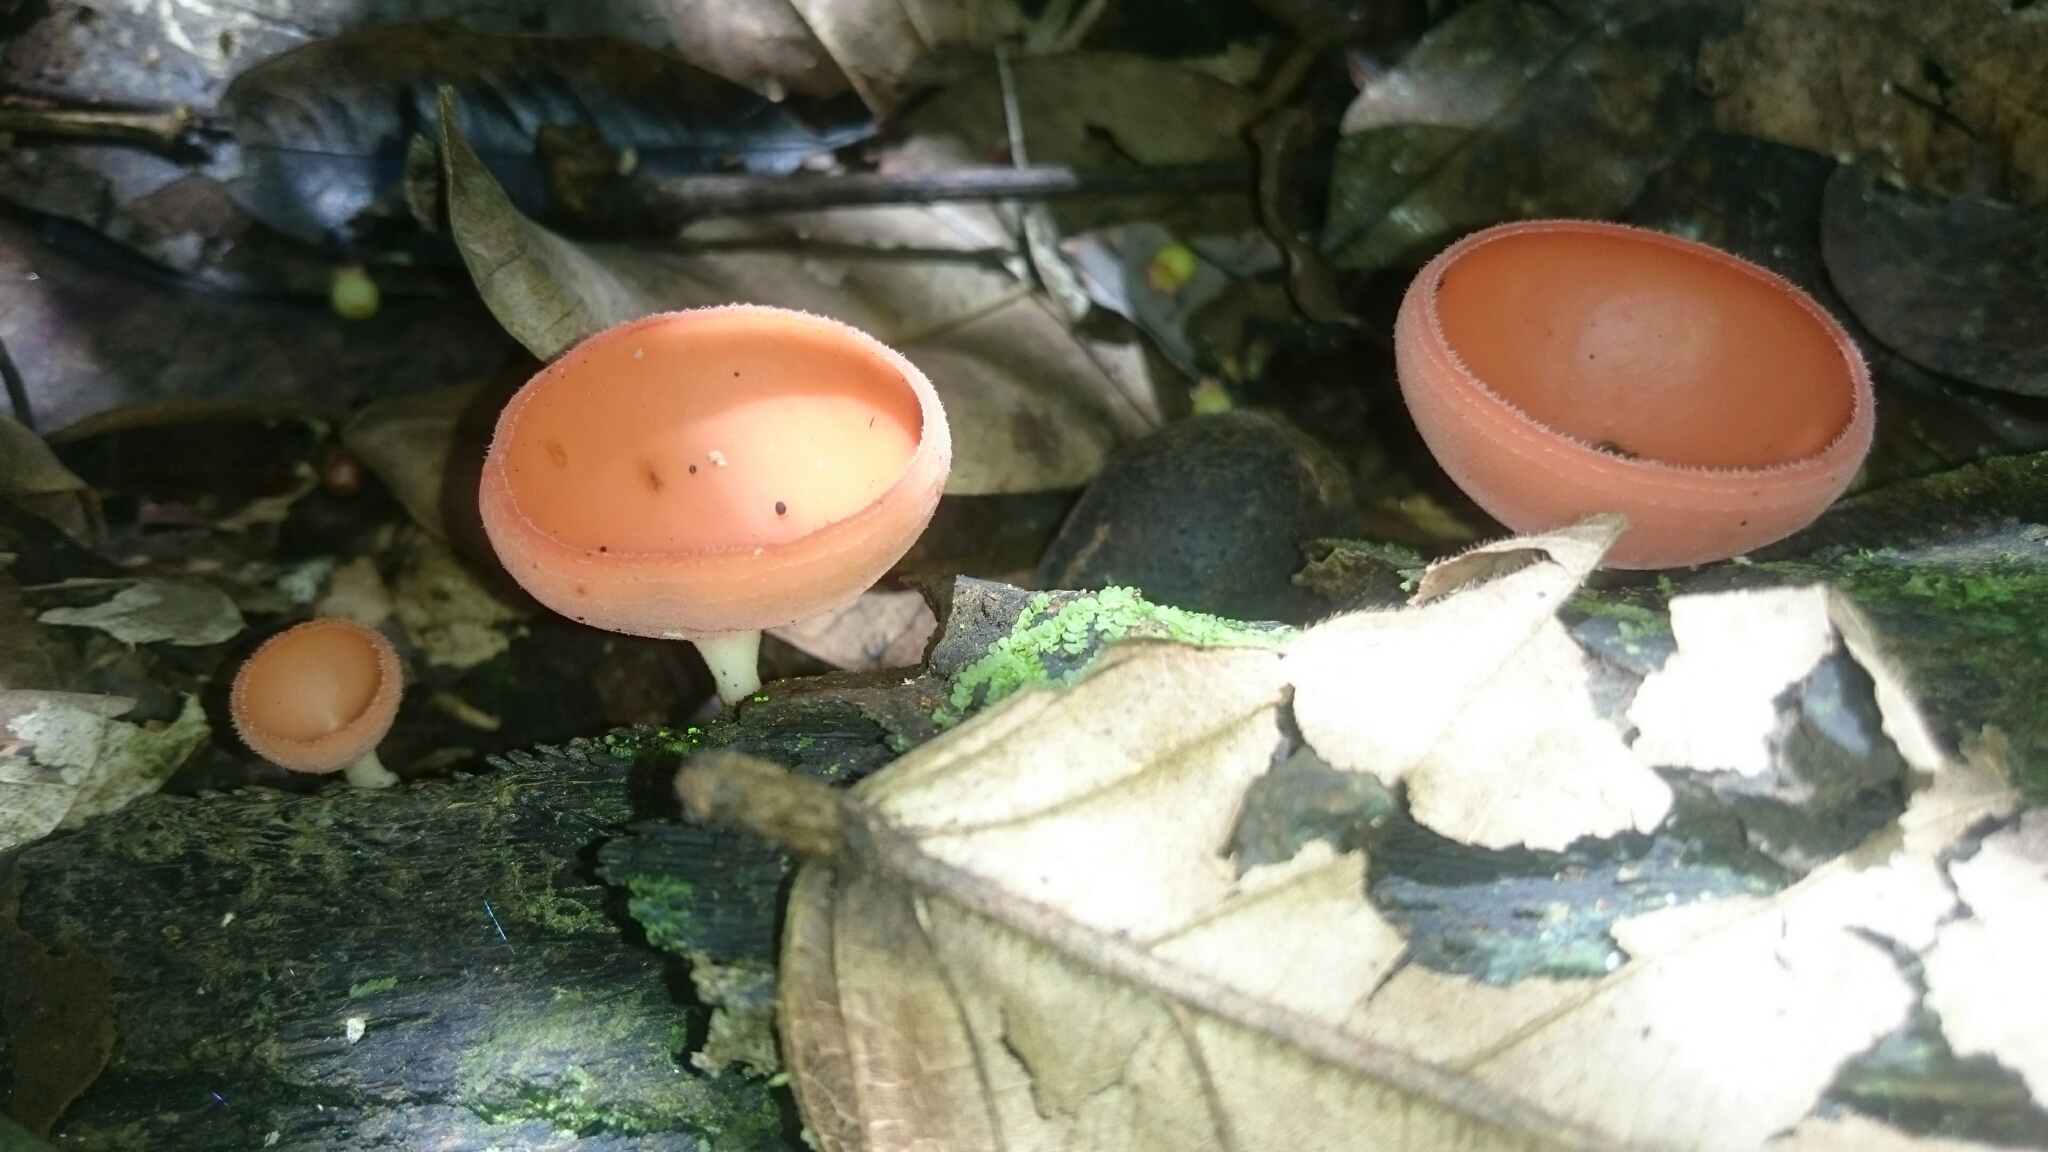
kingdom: Fungi
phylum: Ascomycota
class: Pezizomycetes
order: Pezizales
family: Sarcoscyphaceae
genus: Cookeina
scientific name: Cookeina sulcipes
